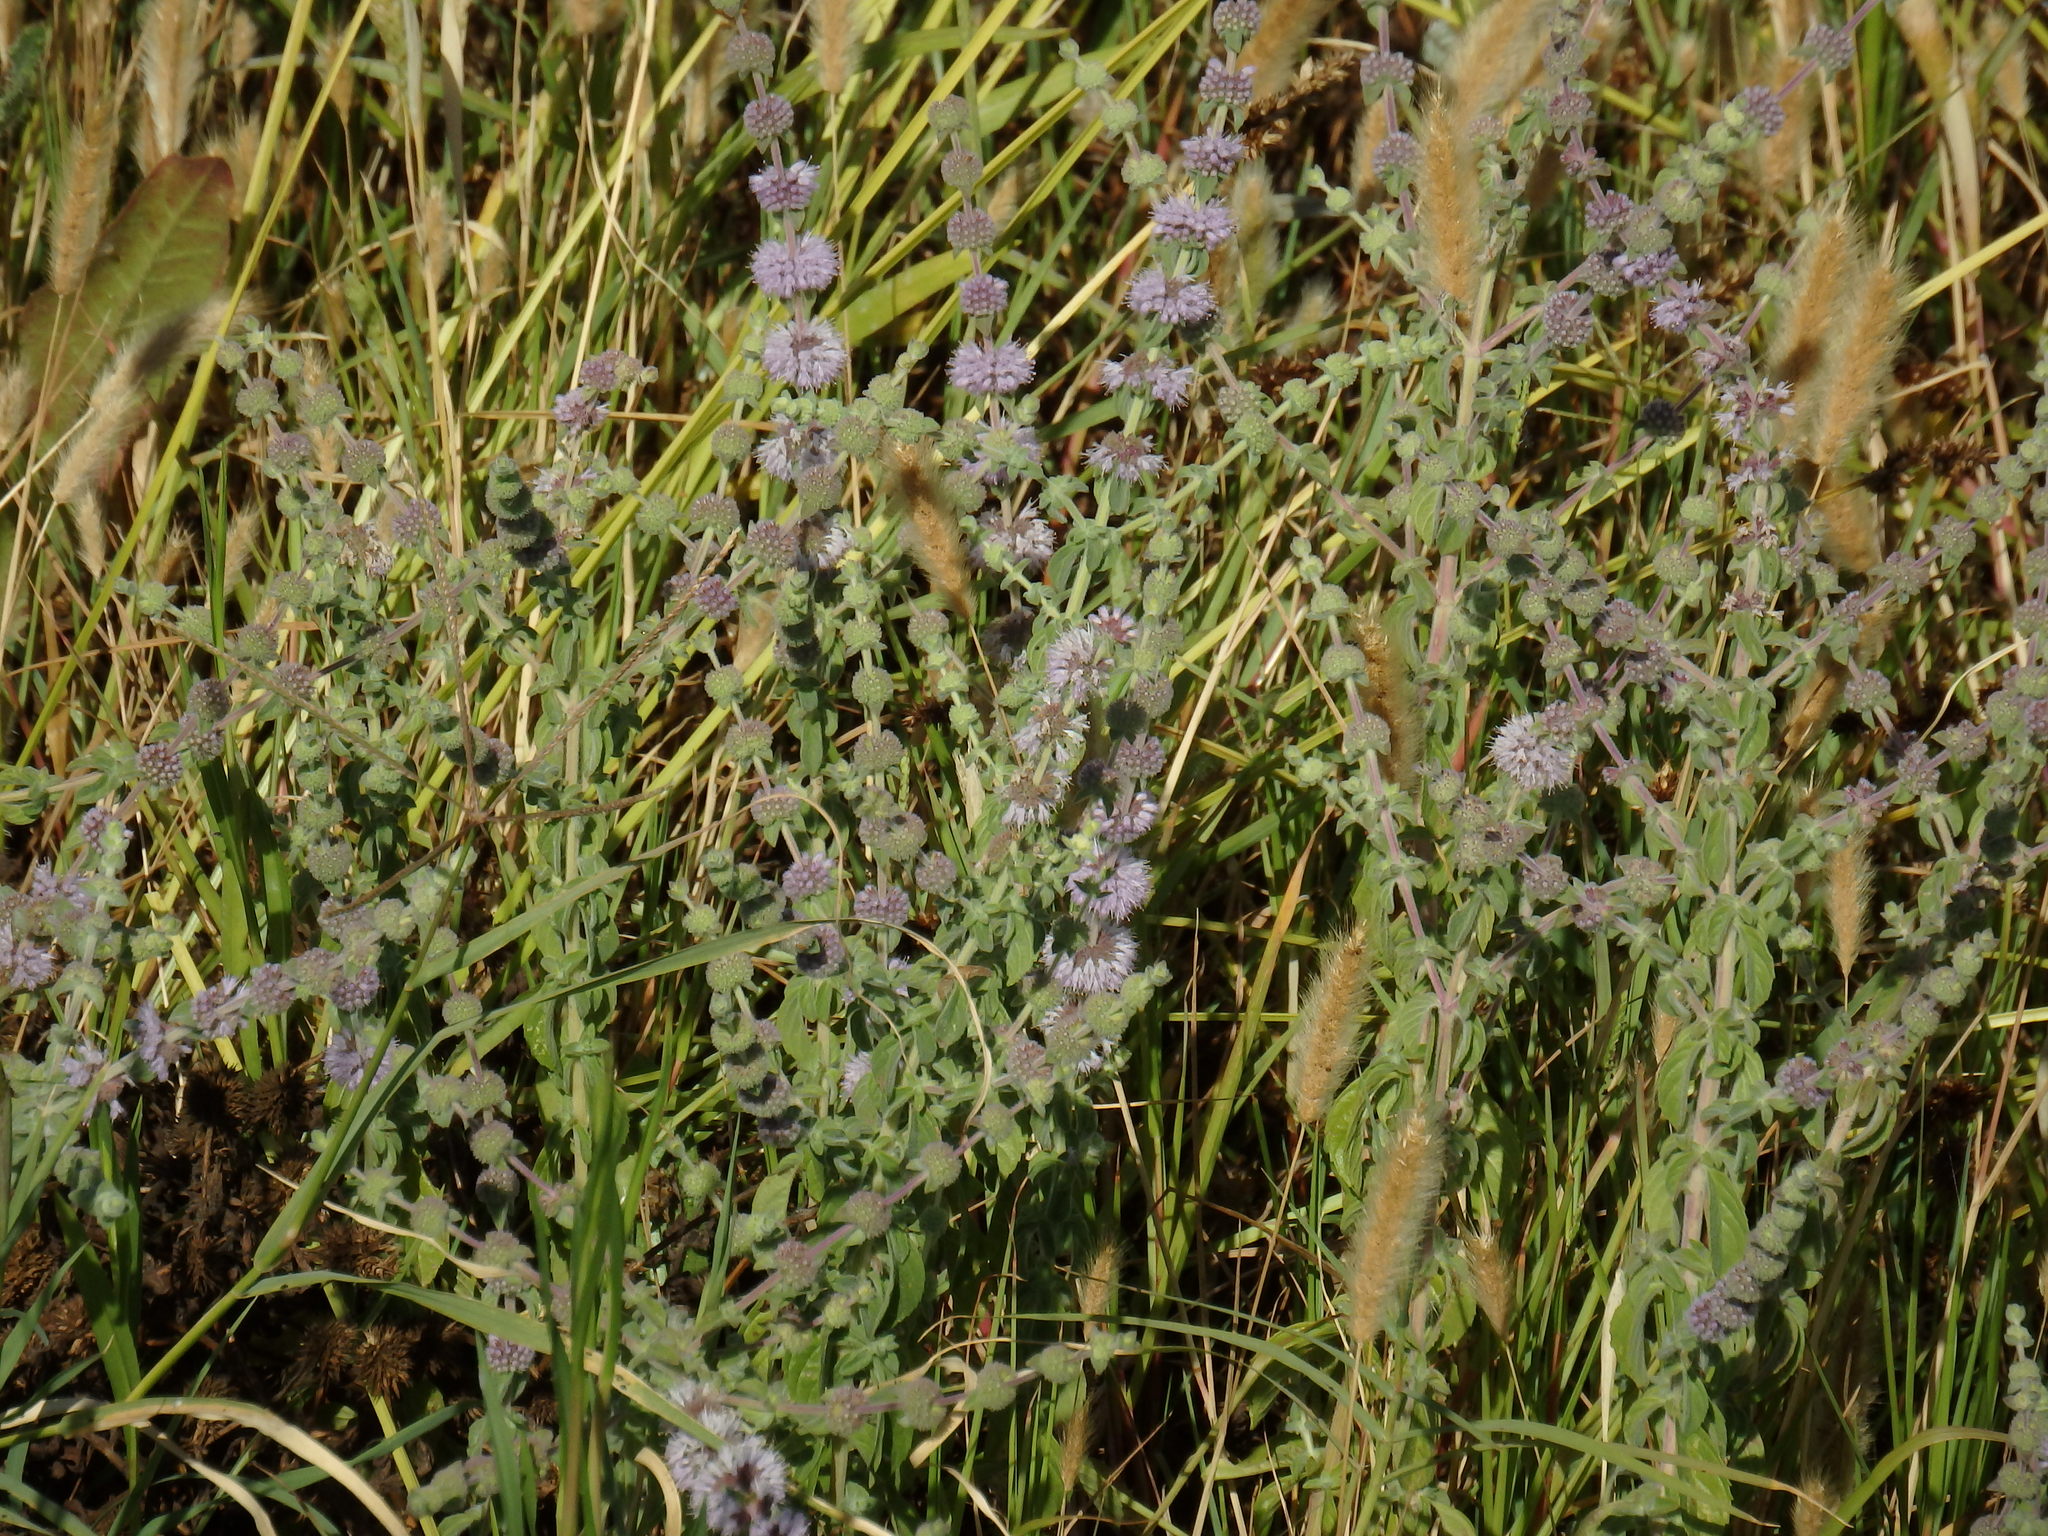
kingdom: Plantae
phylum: Tracheophyta
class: Magnoliopsida
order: Lamiales
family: Lamiaceae
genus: Mentha
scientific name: Mentha pulegium
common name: Pennyroyal
